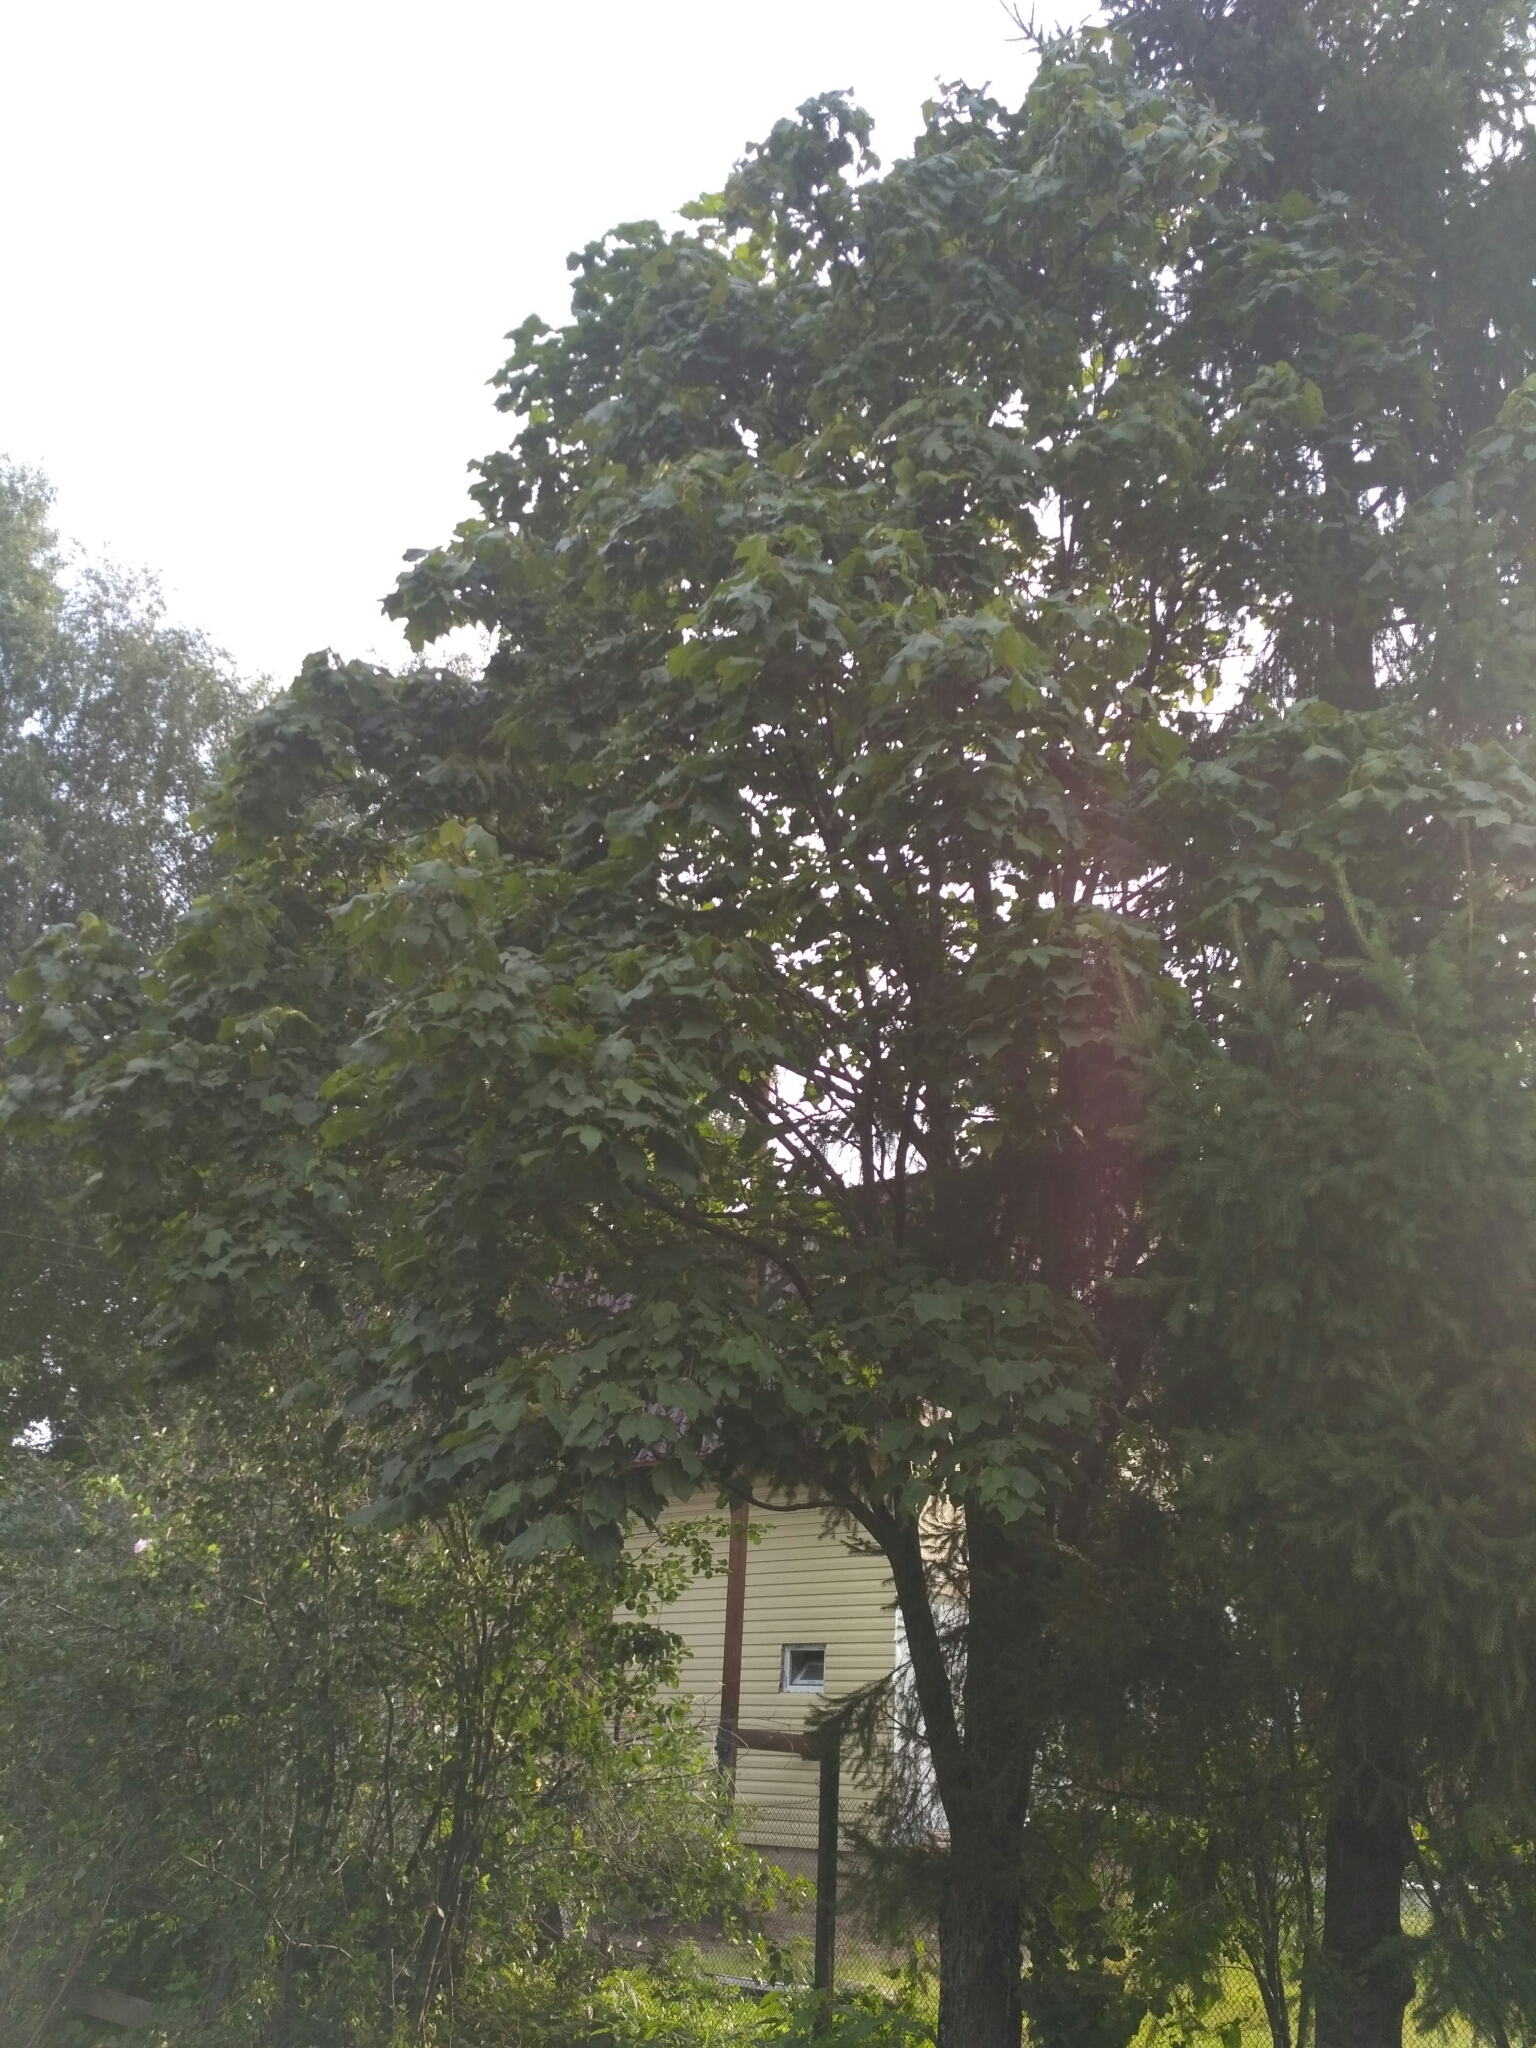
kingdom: Plantae
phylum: Tracheophyta
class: Magnoliopsida
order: Sapindales
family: Sapindaceae
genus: Acer
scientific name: Acer platanoides
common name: Norway maple
